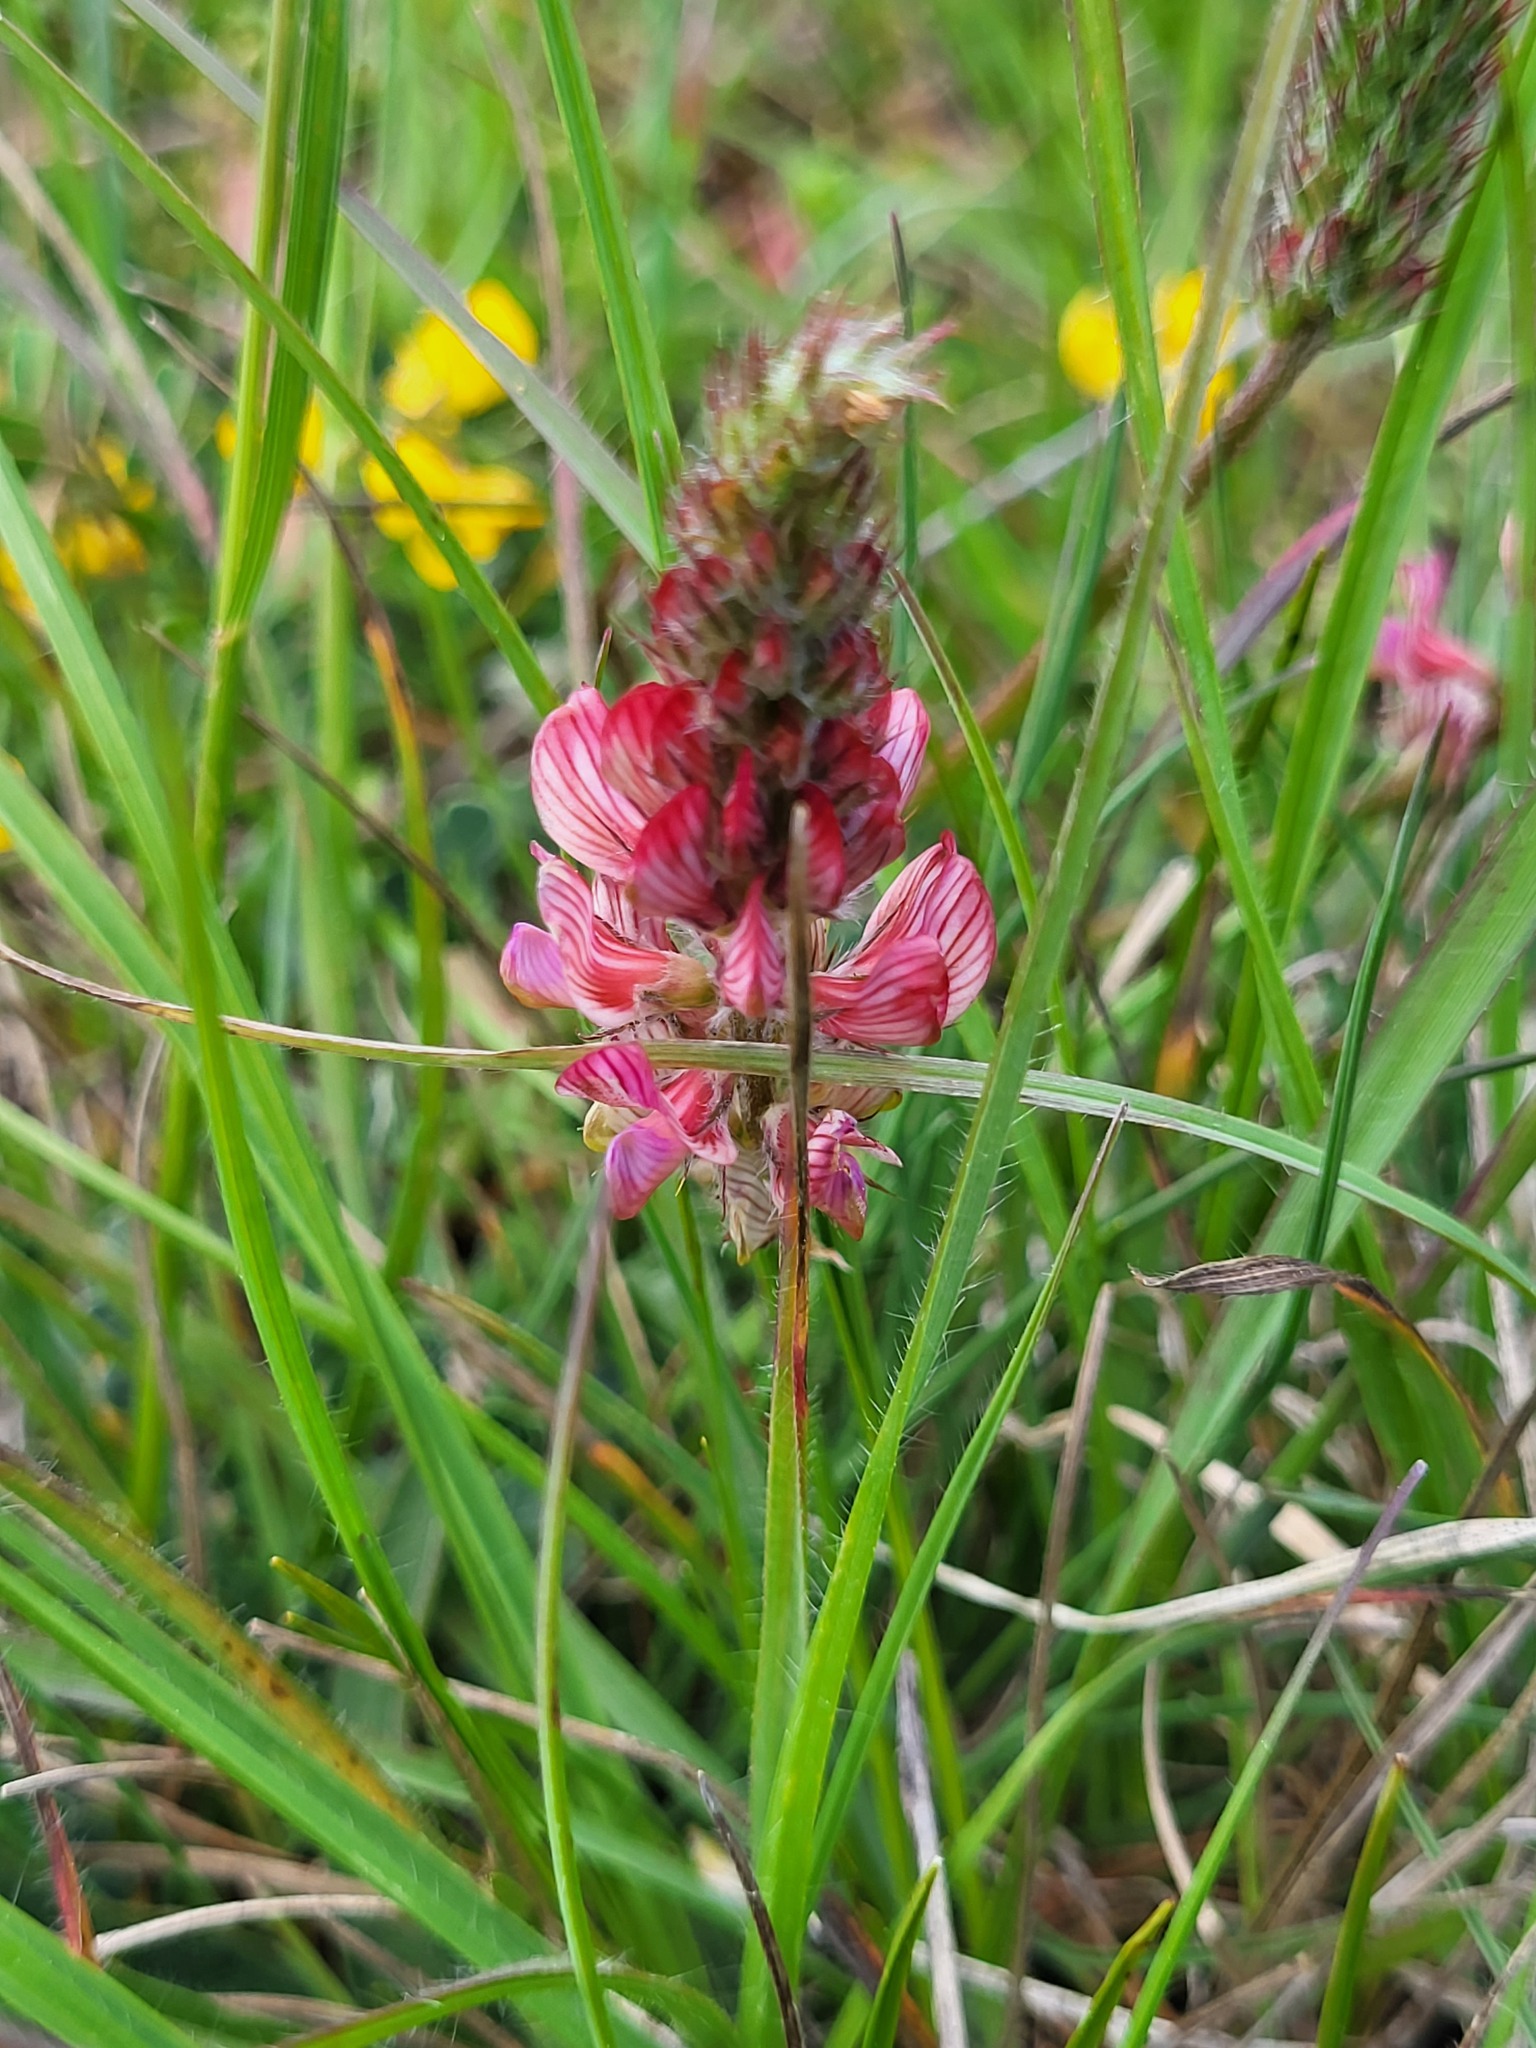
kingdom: Plantae
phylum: Tracheophyta
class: Magnoliopsida
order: Fabales
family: Fabaceae
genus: Onobrychis
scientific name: Onobrychis supina
